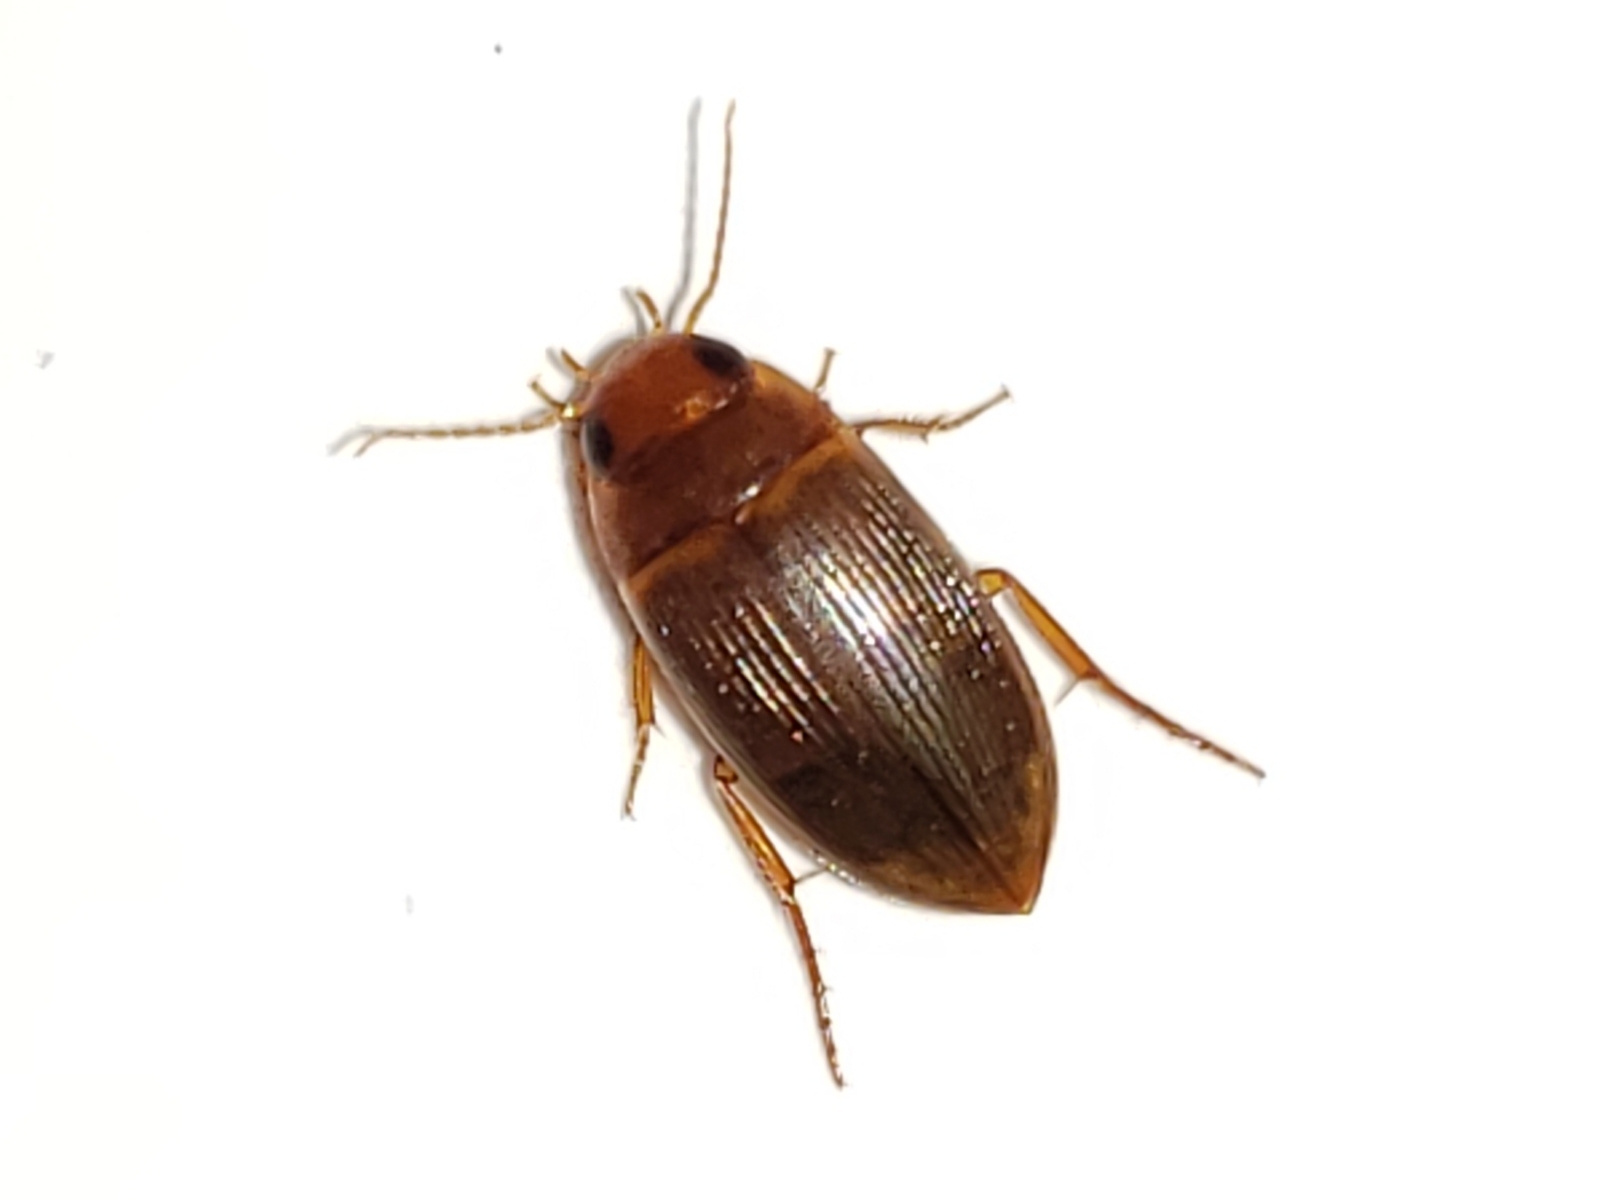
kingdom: Animalia
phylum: Arthropoda
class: Insecta
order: Coleoptera
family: Dytiscidae
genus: Copelatus
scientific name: Copelatus caelatipennis
